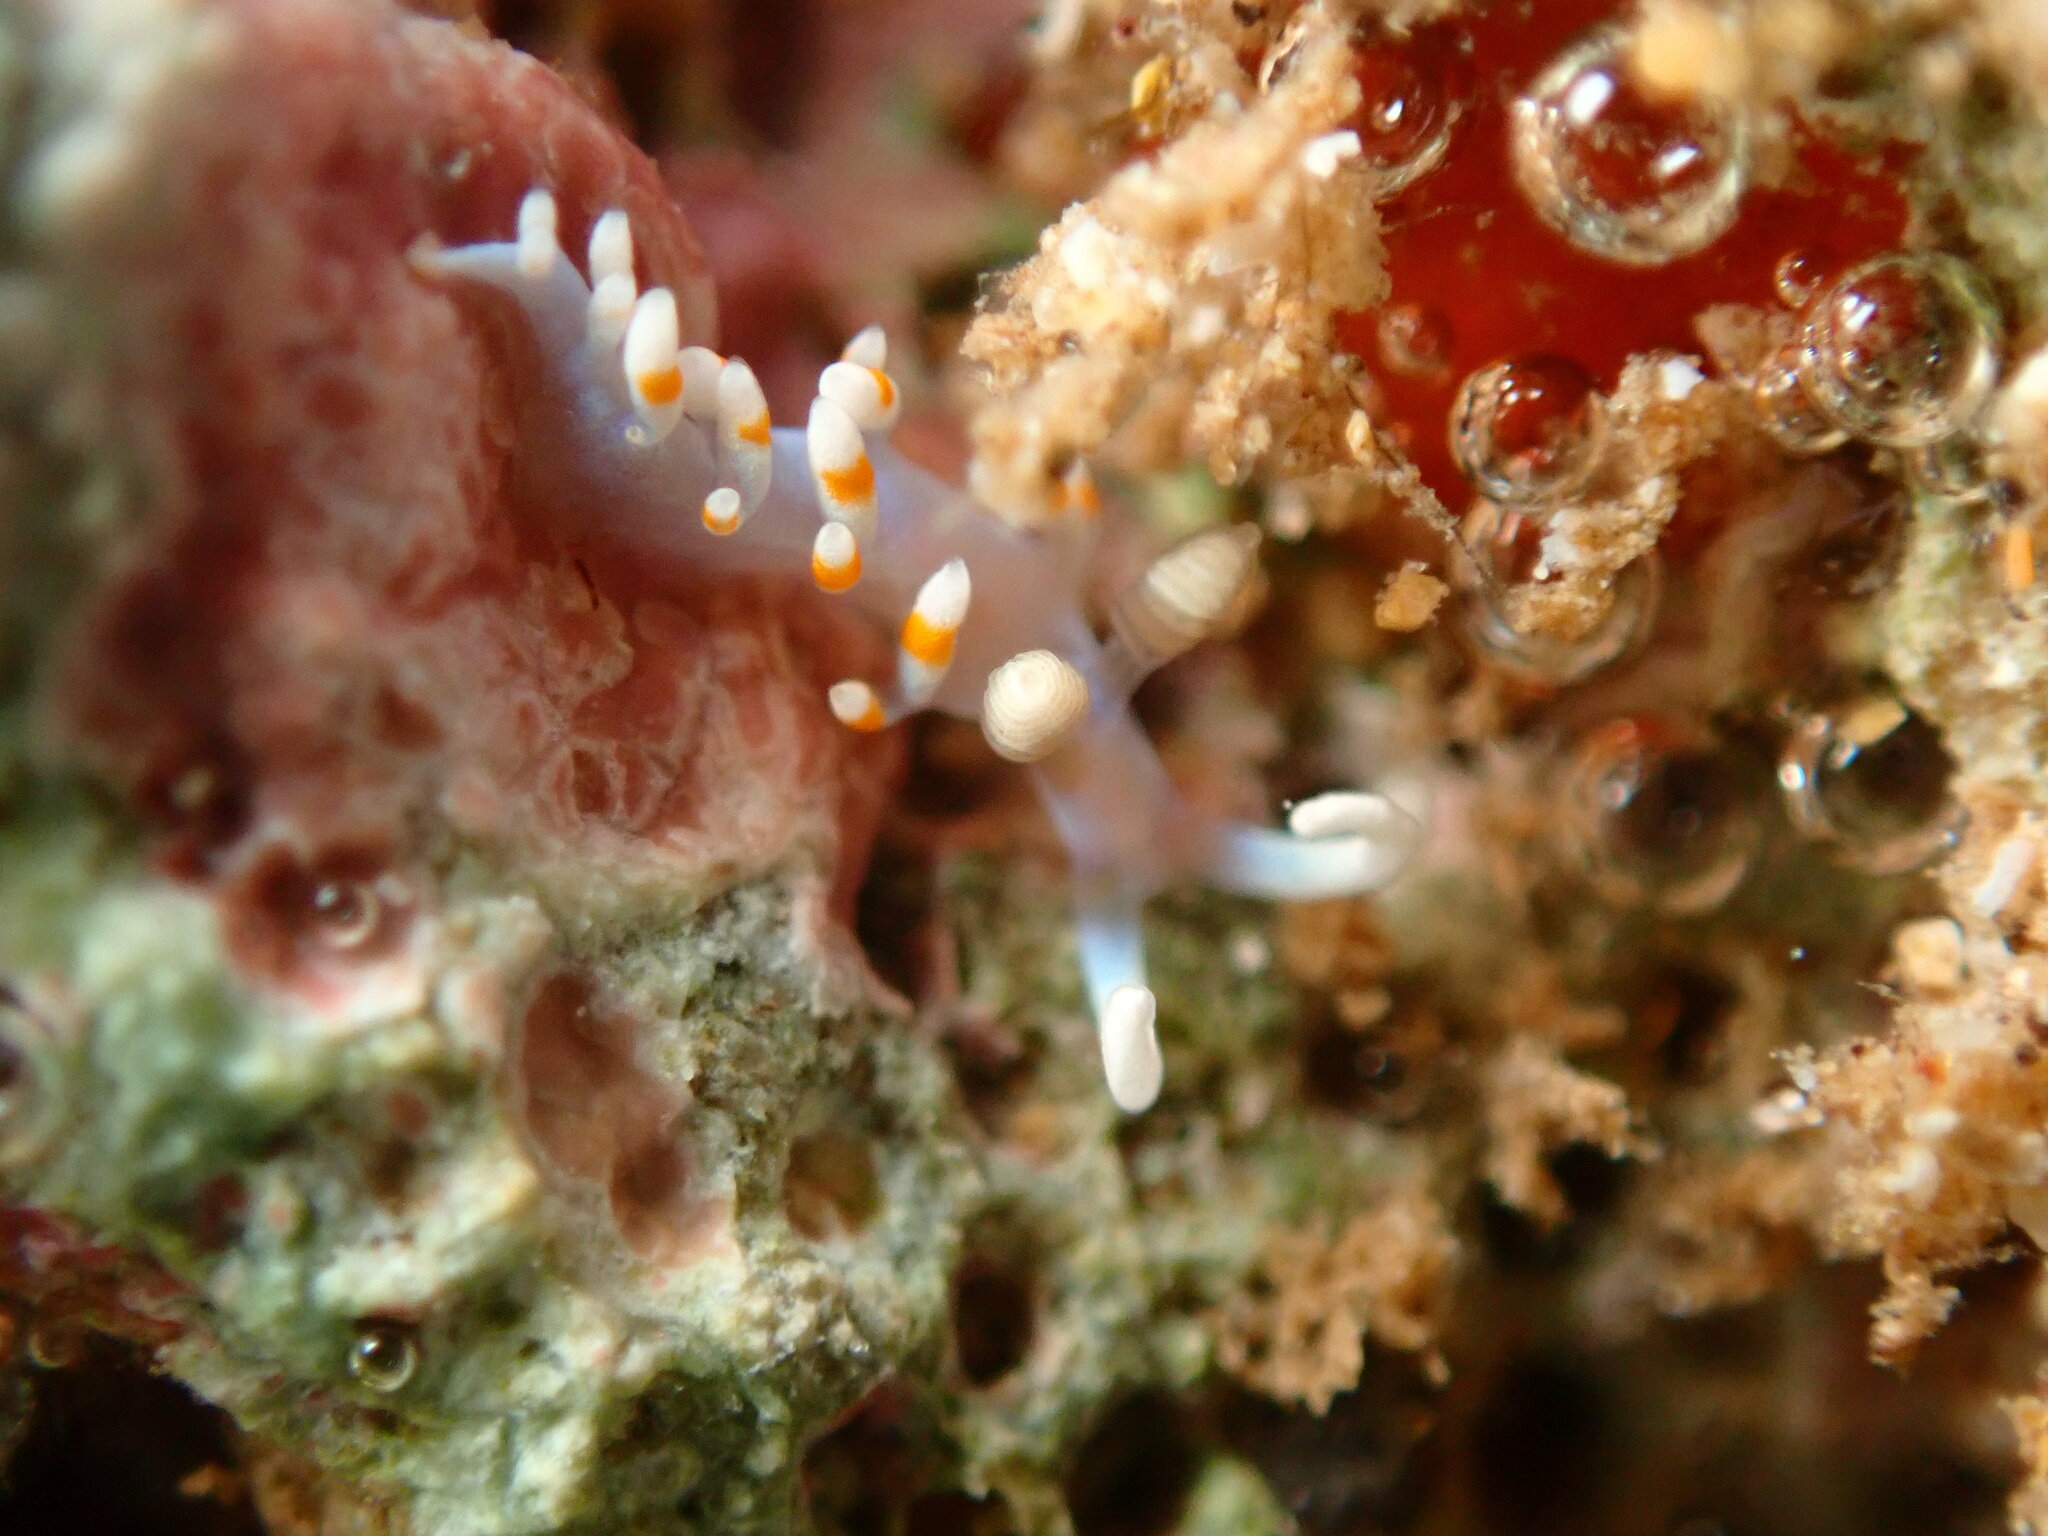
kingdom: Animalia
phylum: Mollusca
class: Gastropoda
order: Nudibranchia
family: Samlidae
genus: Samla
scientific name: Samla bicolor
